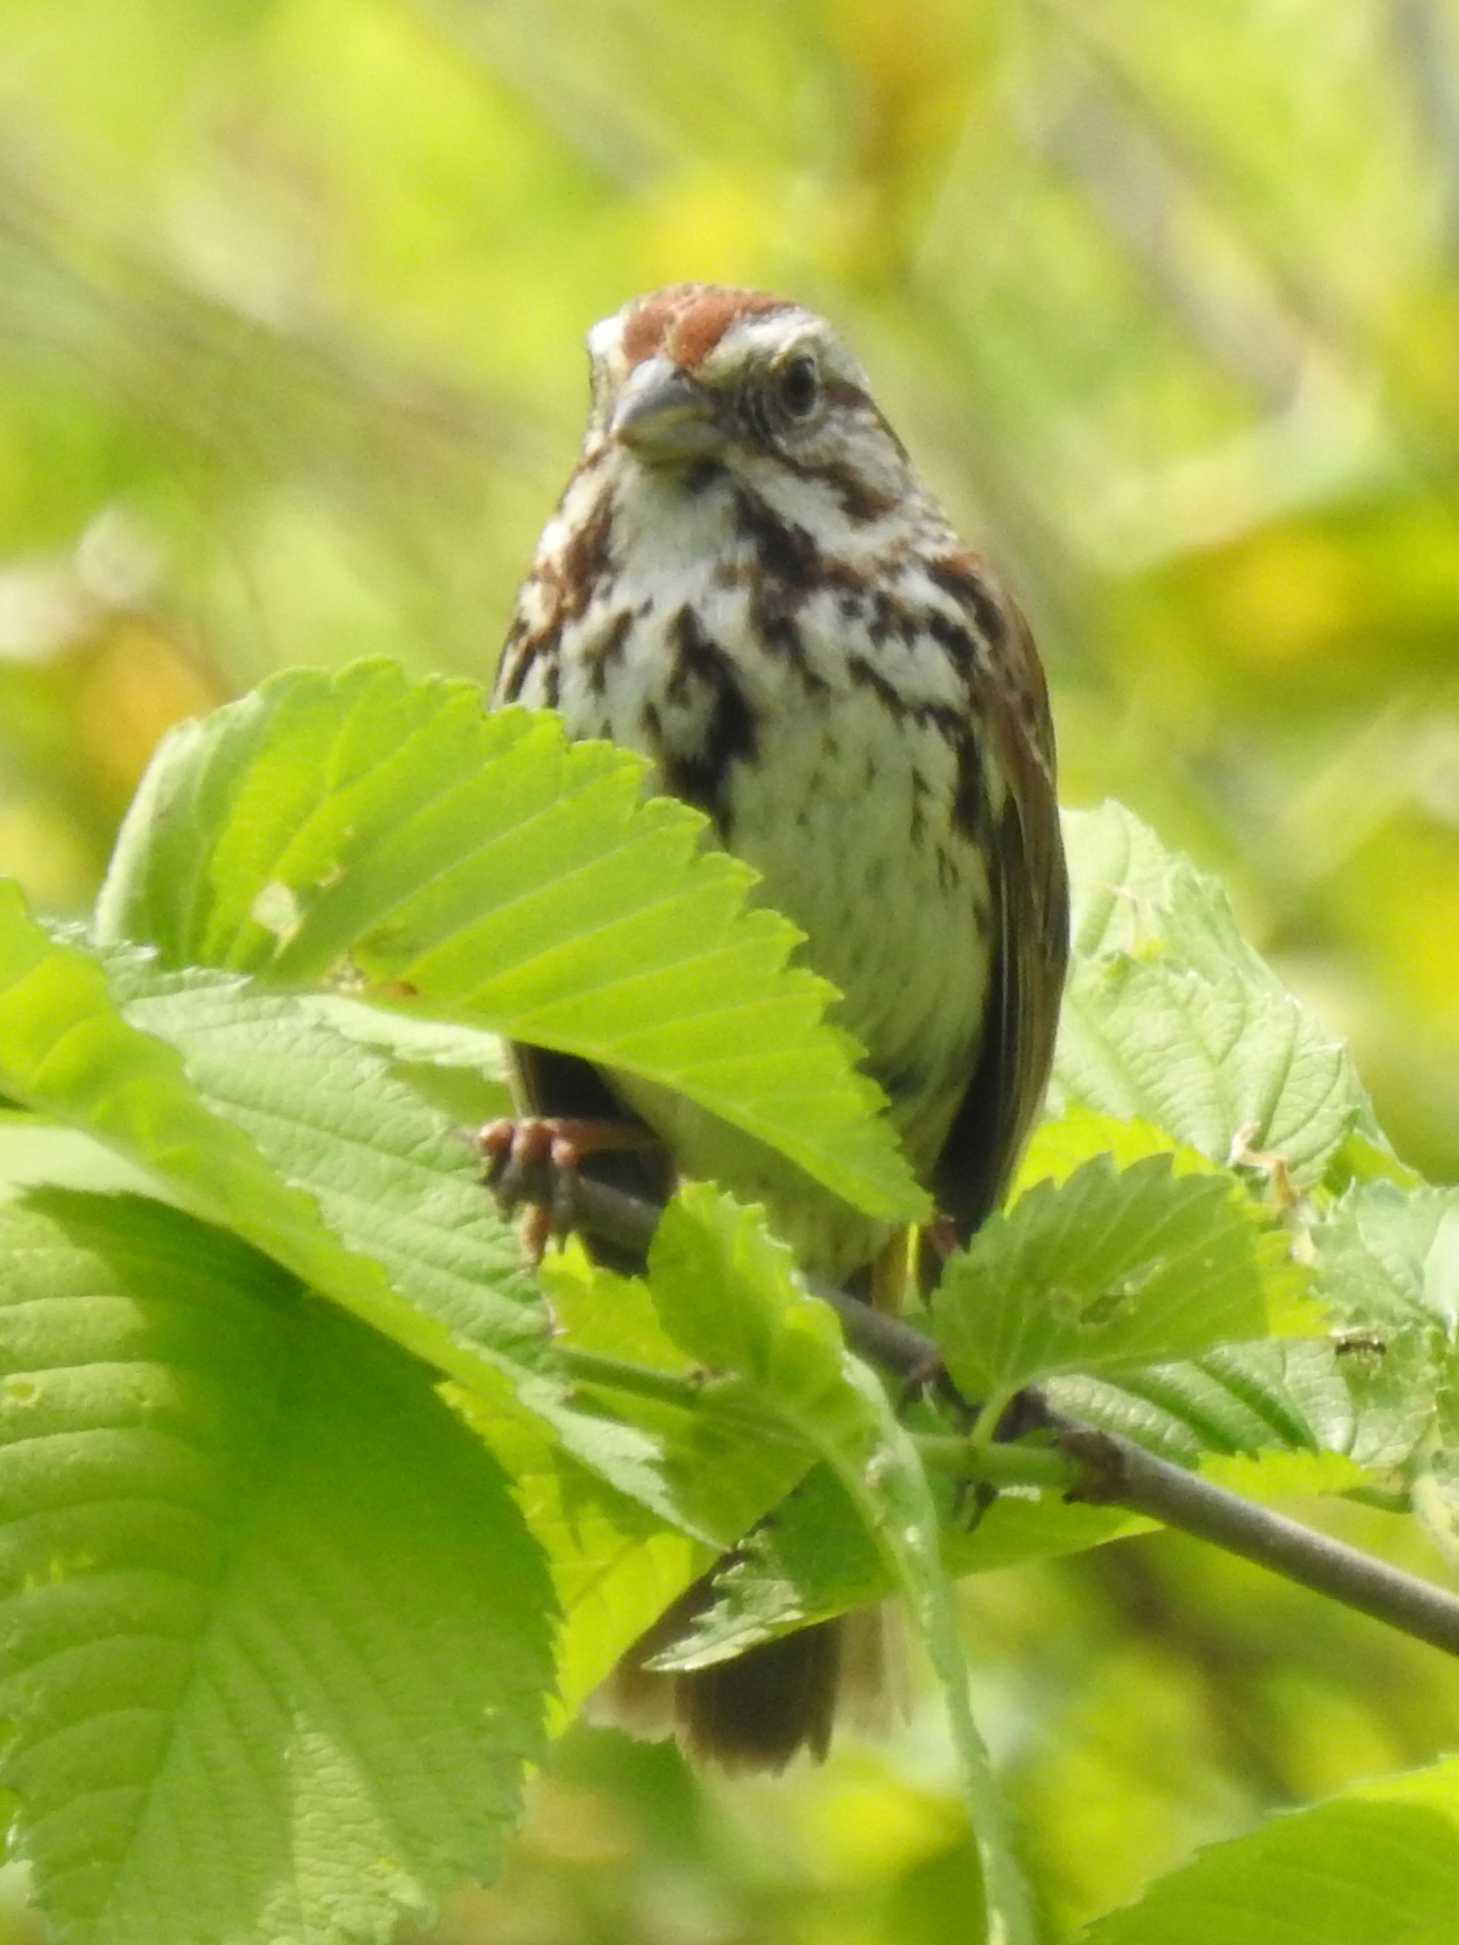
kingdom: Animalia
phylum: Chordata
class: Aves
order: Passeriformes
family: Passerellidae
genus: Melospiza
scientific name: Melospiza melodia
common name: Song sparrow
